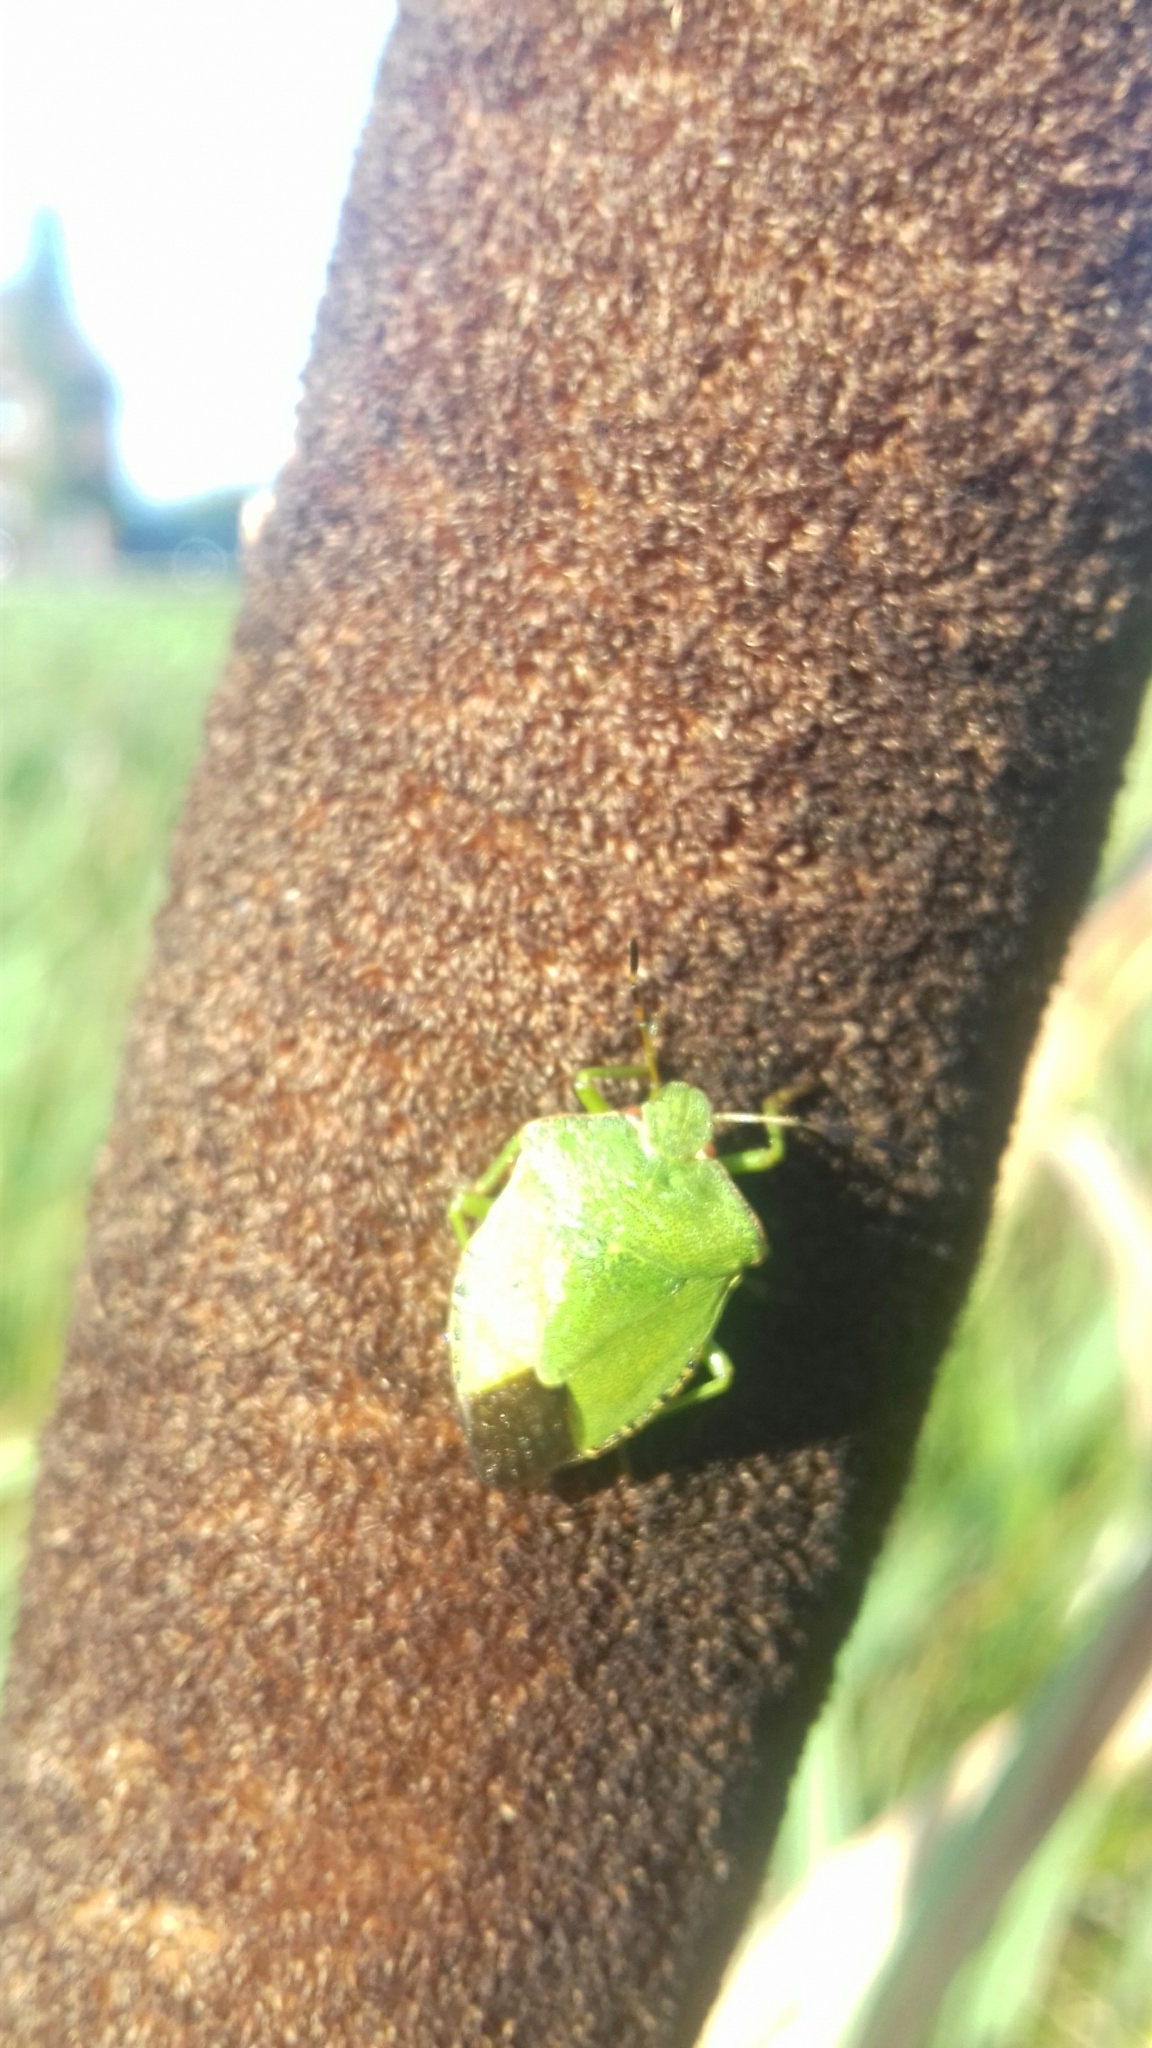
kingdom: Plantae
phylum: Tracheophyta
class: Liliopsida
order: Poales
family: Typhaceae
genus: Typha
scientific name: Typha latifolia
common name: Broadleaf cattail
